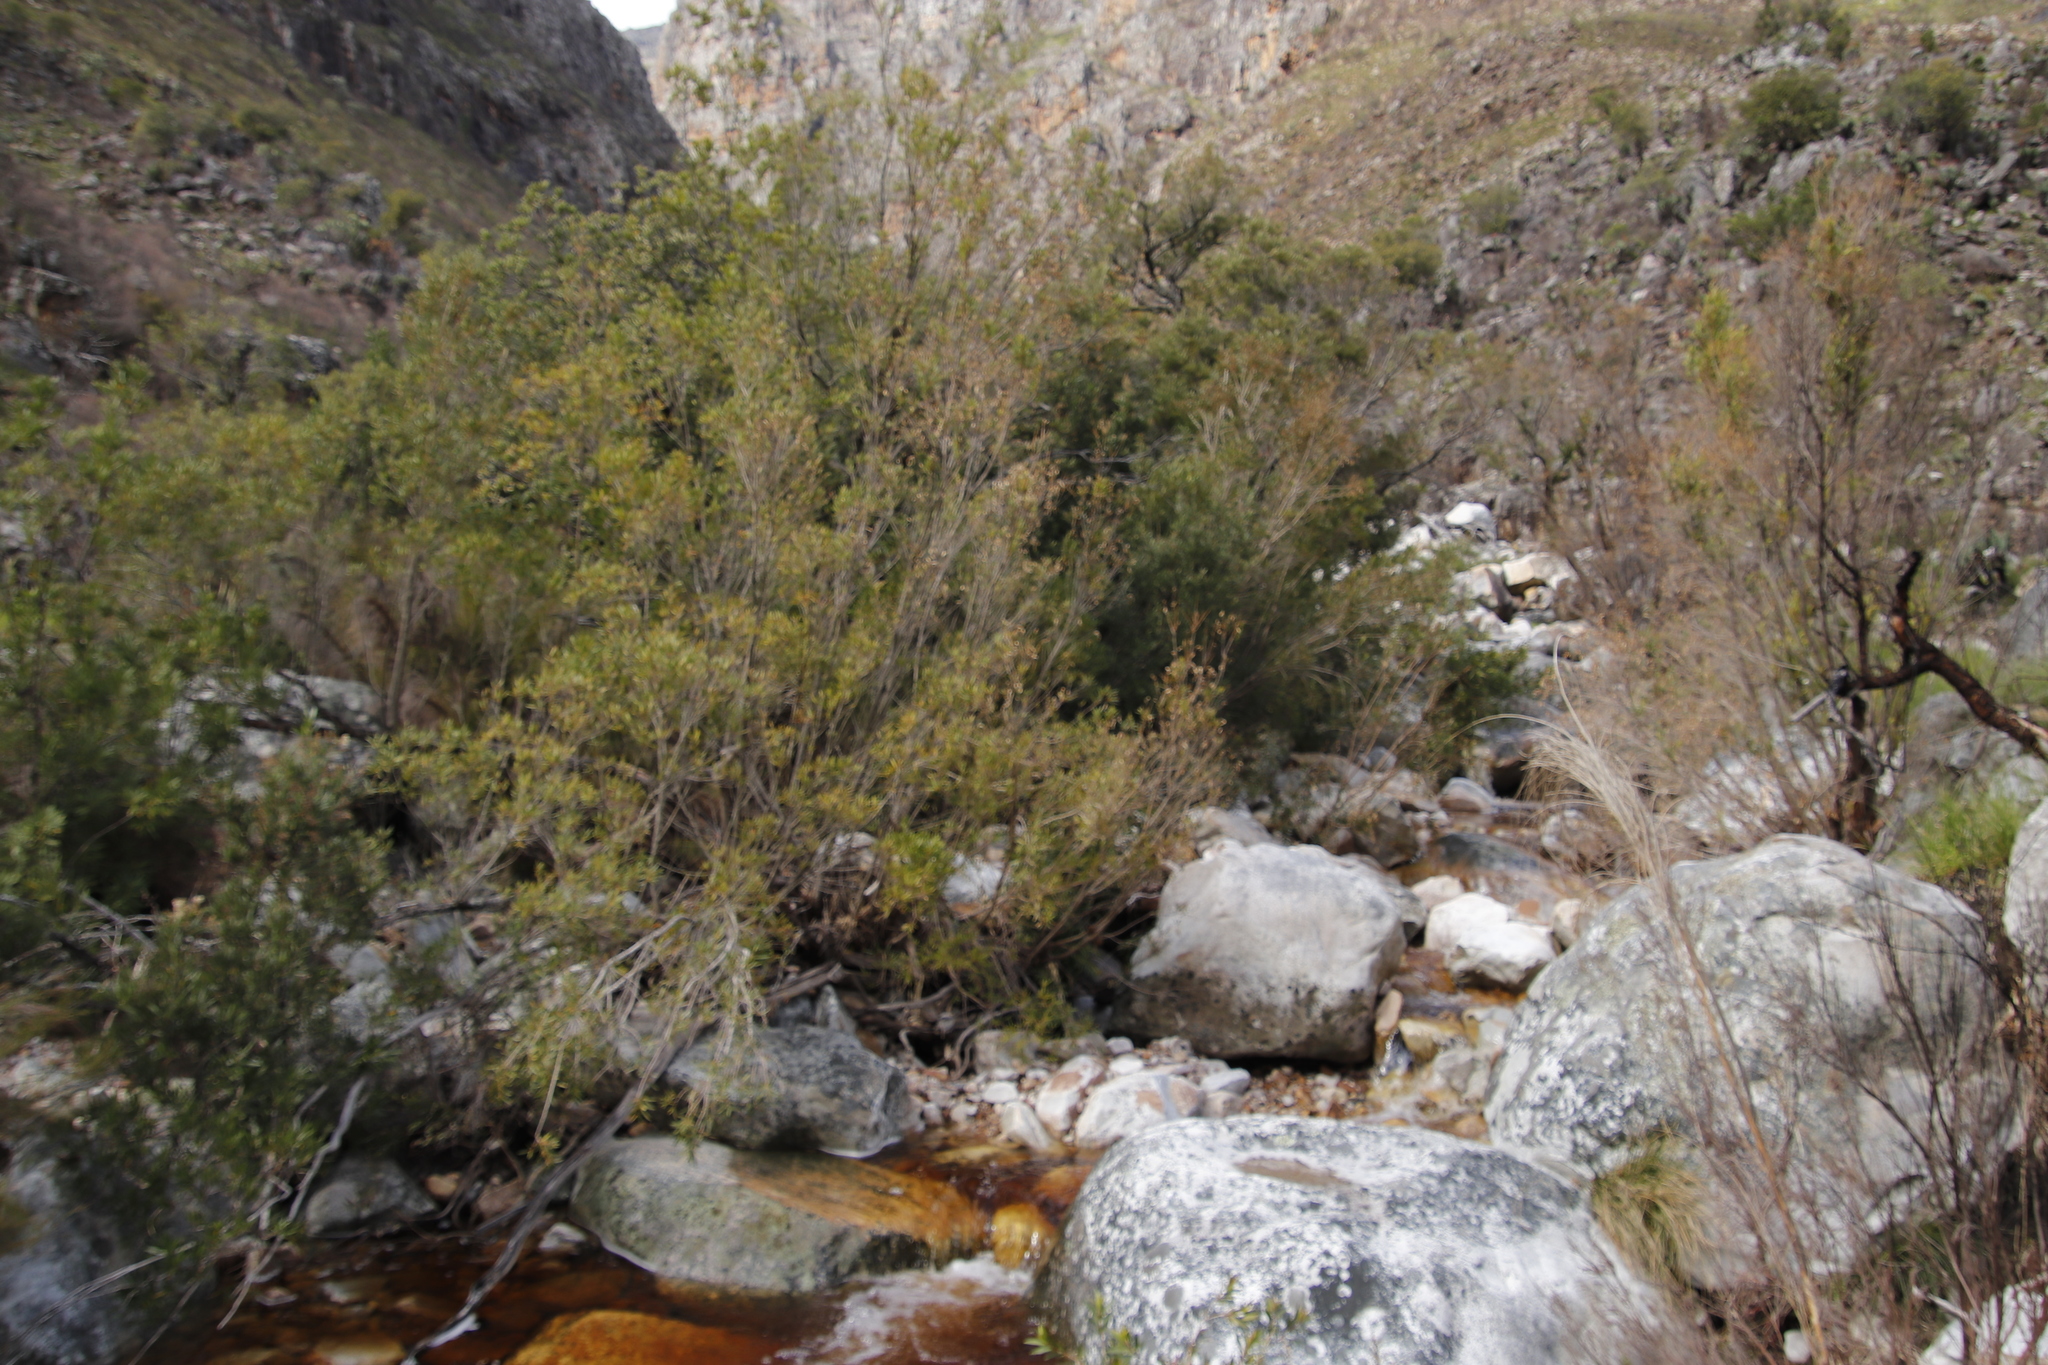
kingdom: Plantae
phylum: Tracheophyta
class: Magnoliopsida
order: Myrtales
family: Myrtaceae
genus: Callistemon
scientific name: Callistemon lanceolatus
